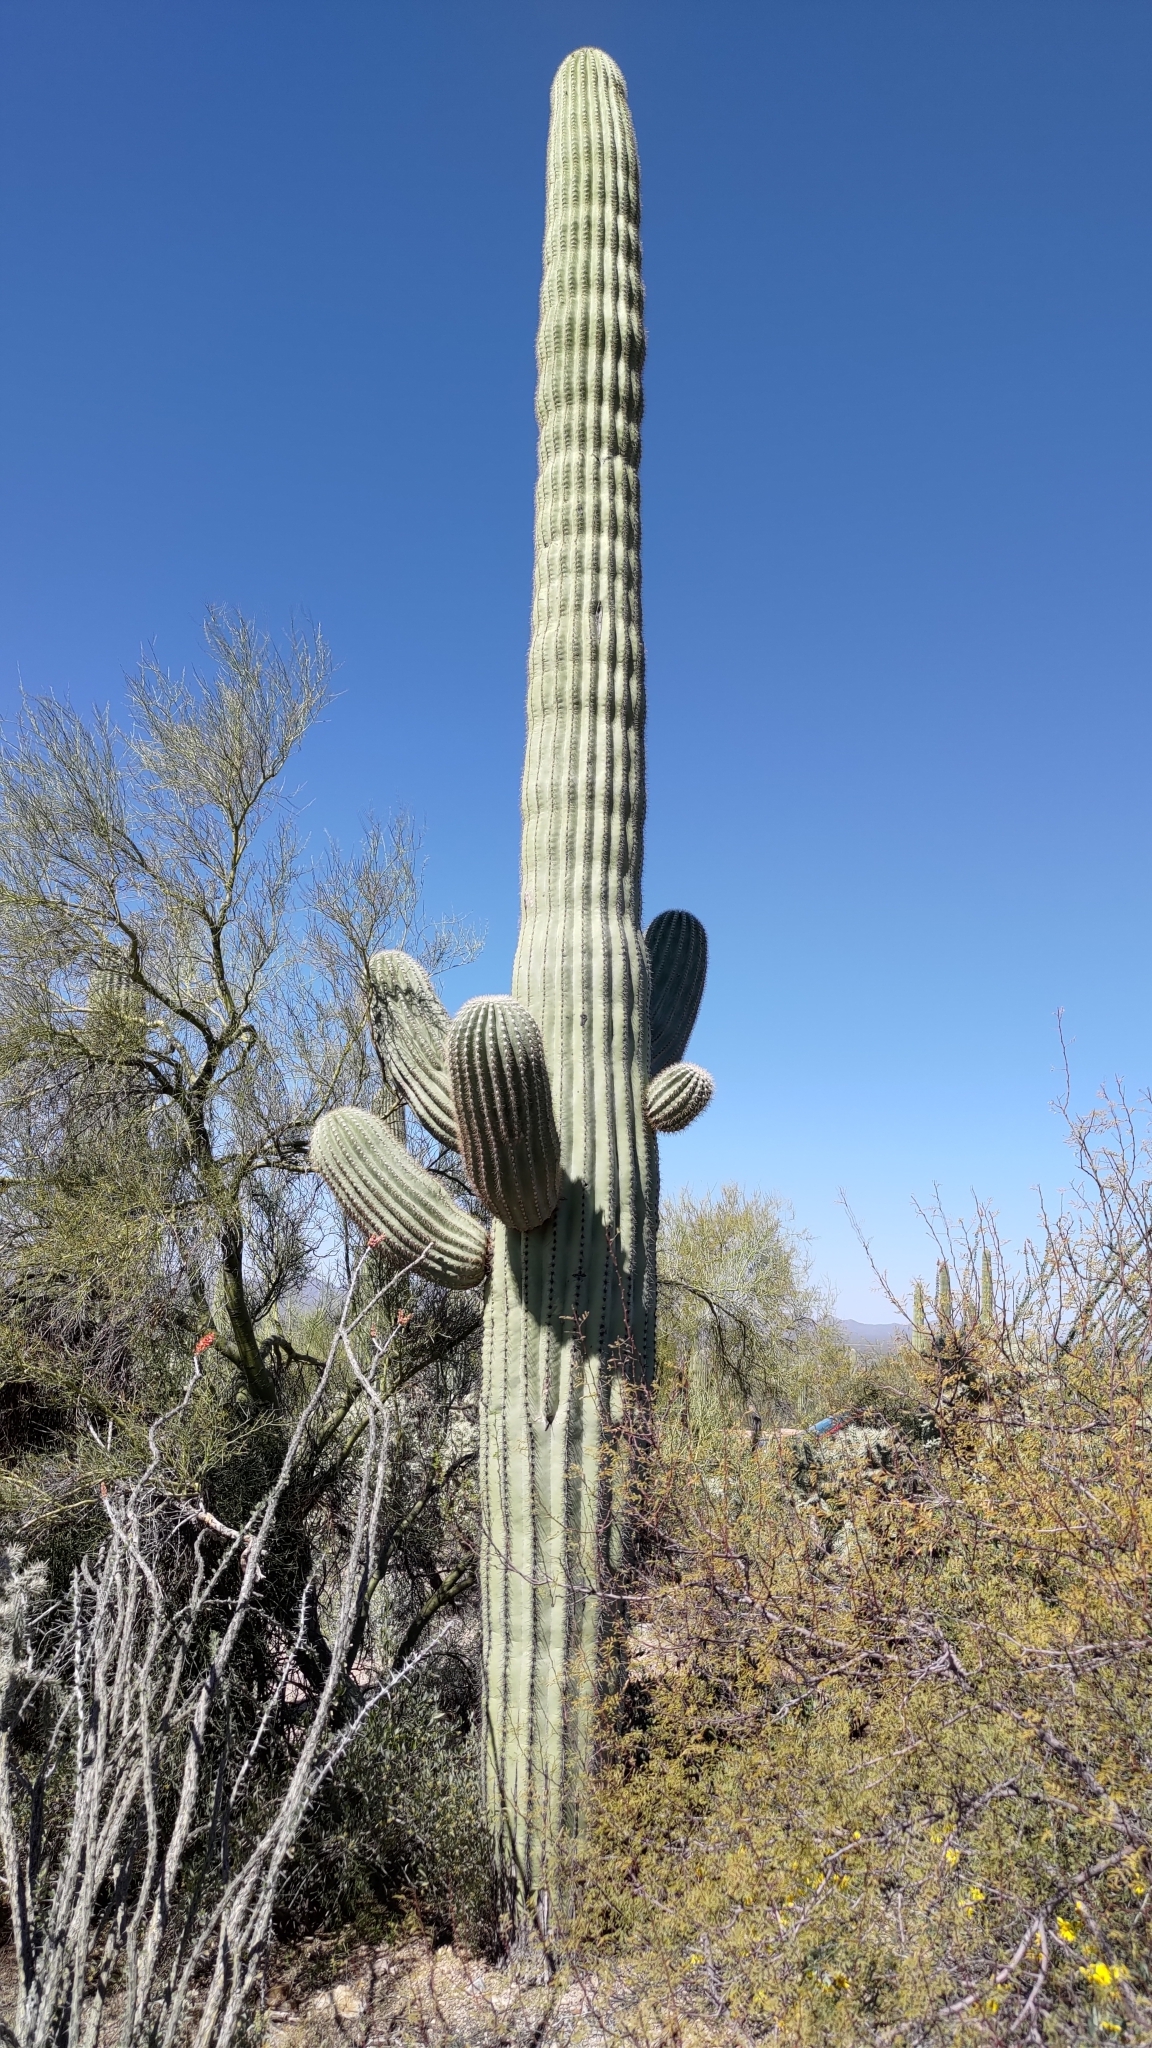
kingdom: Plantae
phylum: Tracheophyta
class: Magnoliopsida
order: Caryophyllales
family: Cactaceae
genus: Carnegiea
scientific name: Carnegiea gigantea
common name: Saguaro
